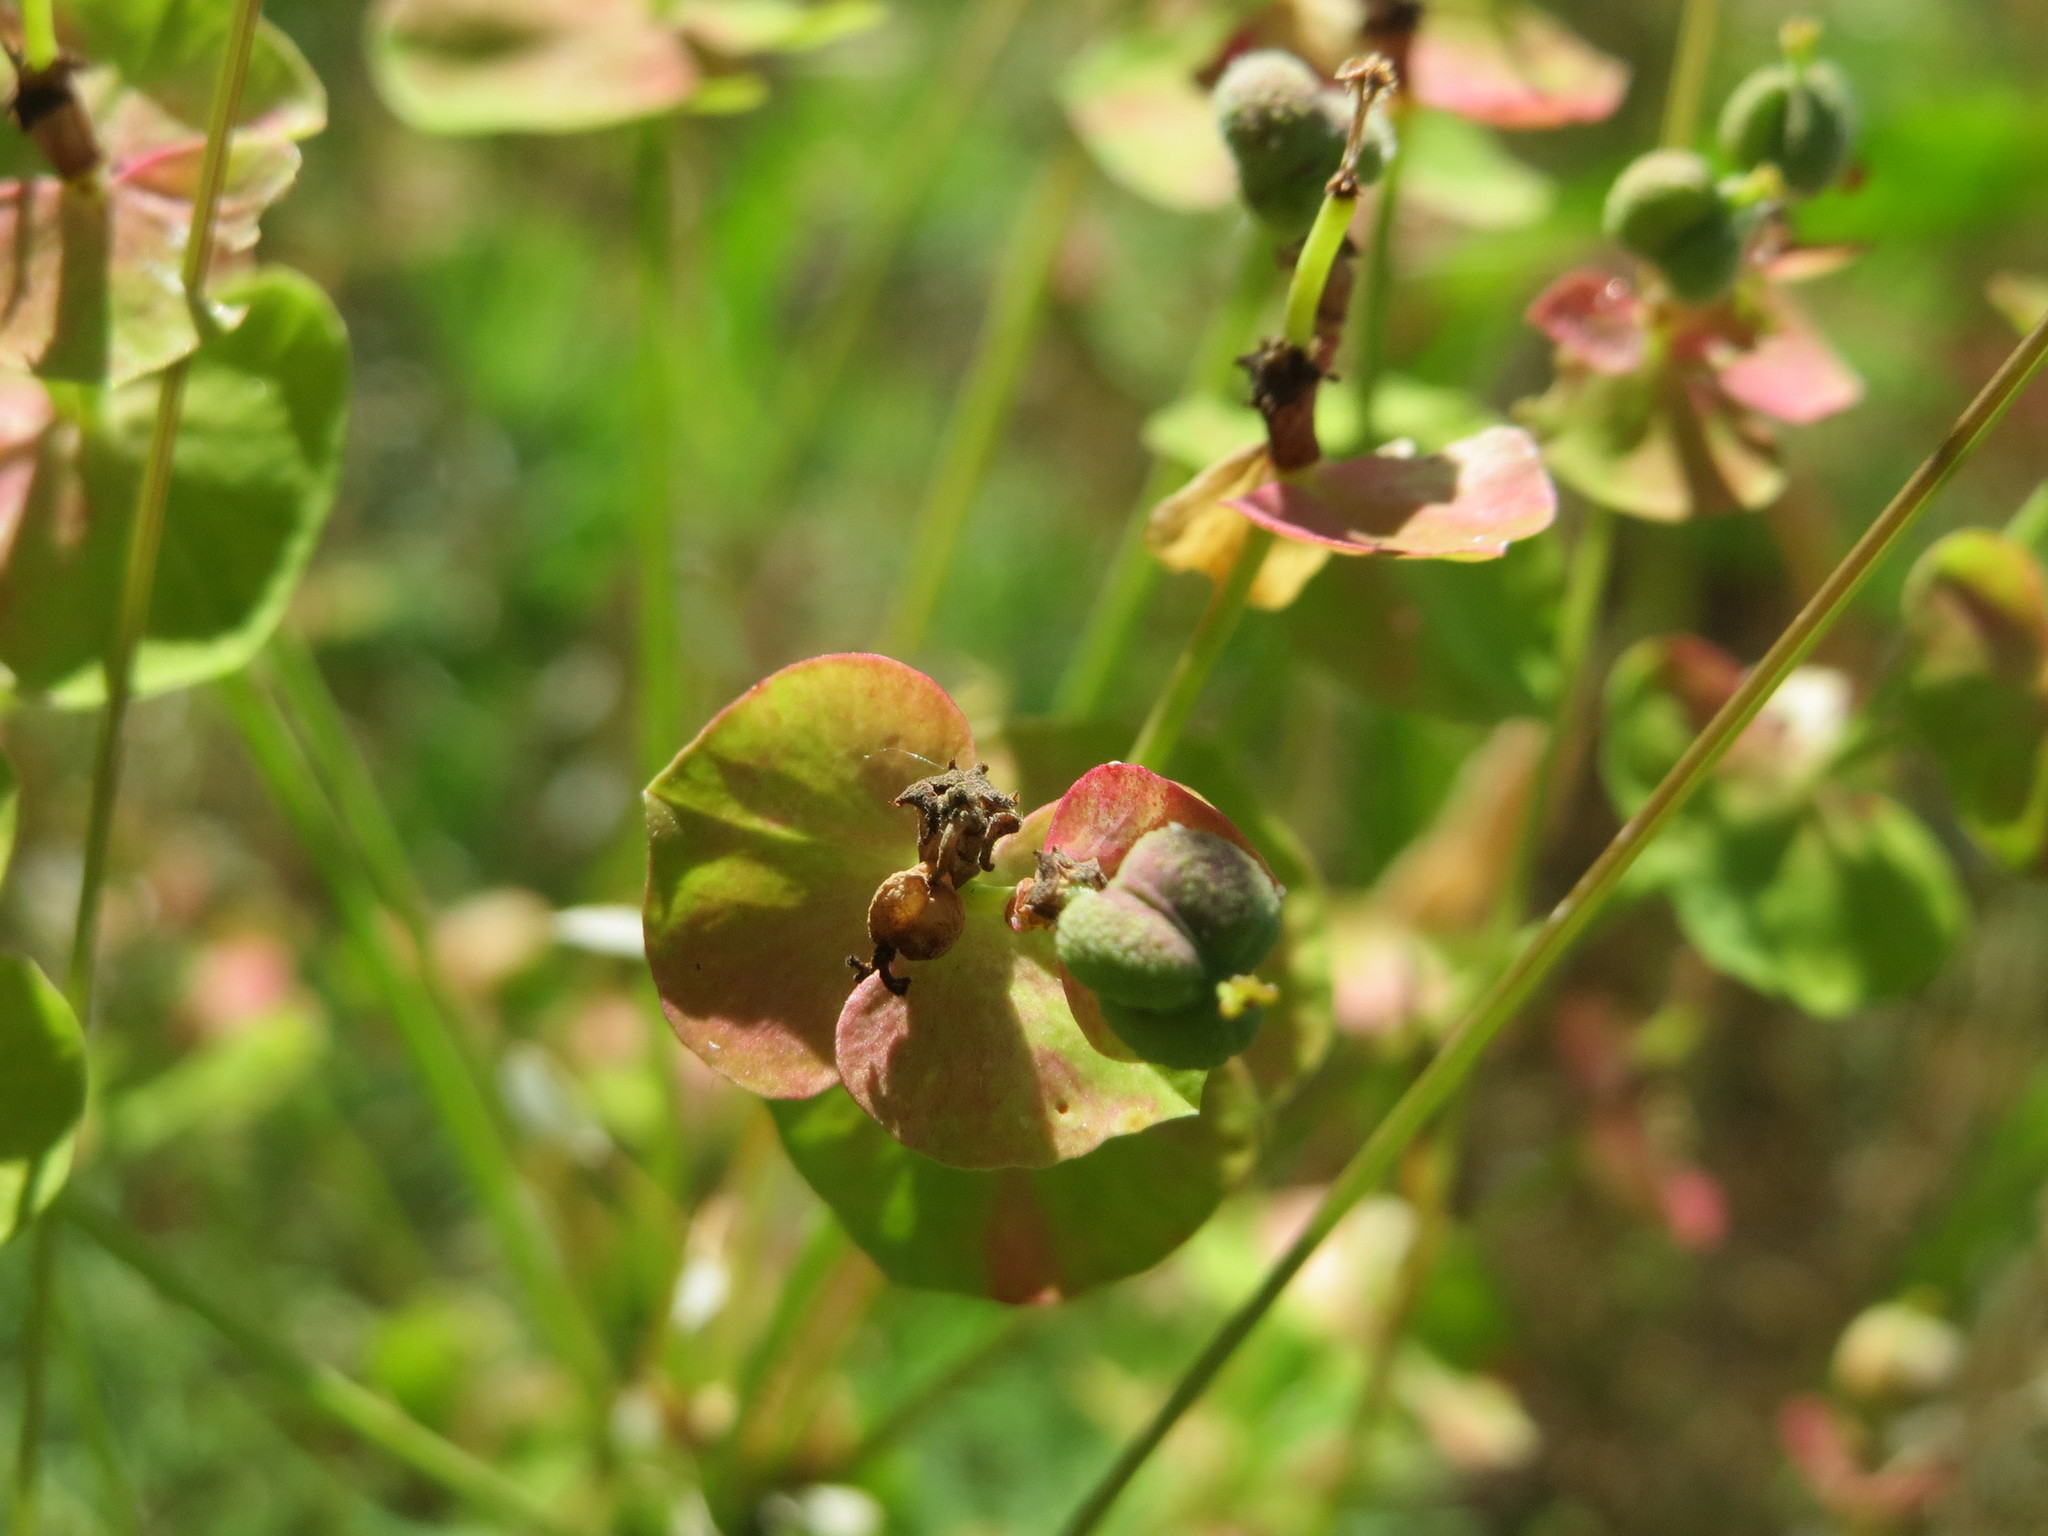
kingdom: Plantae
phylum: Tracheophyta
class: Magnoliopsida
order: Malpighiales
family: Euphorbiaceae
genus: Euphorbia
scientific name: Euphorbia cyparissias
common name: Cypress spurge
